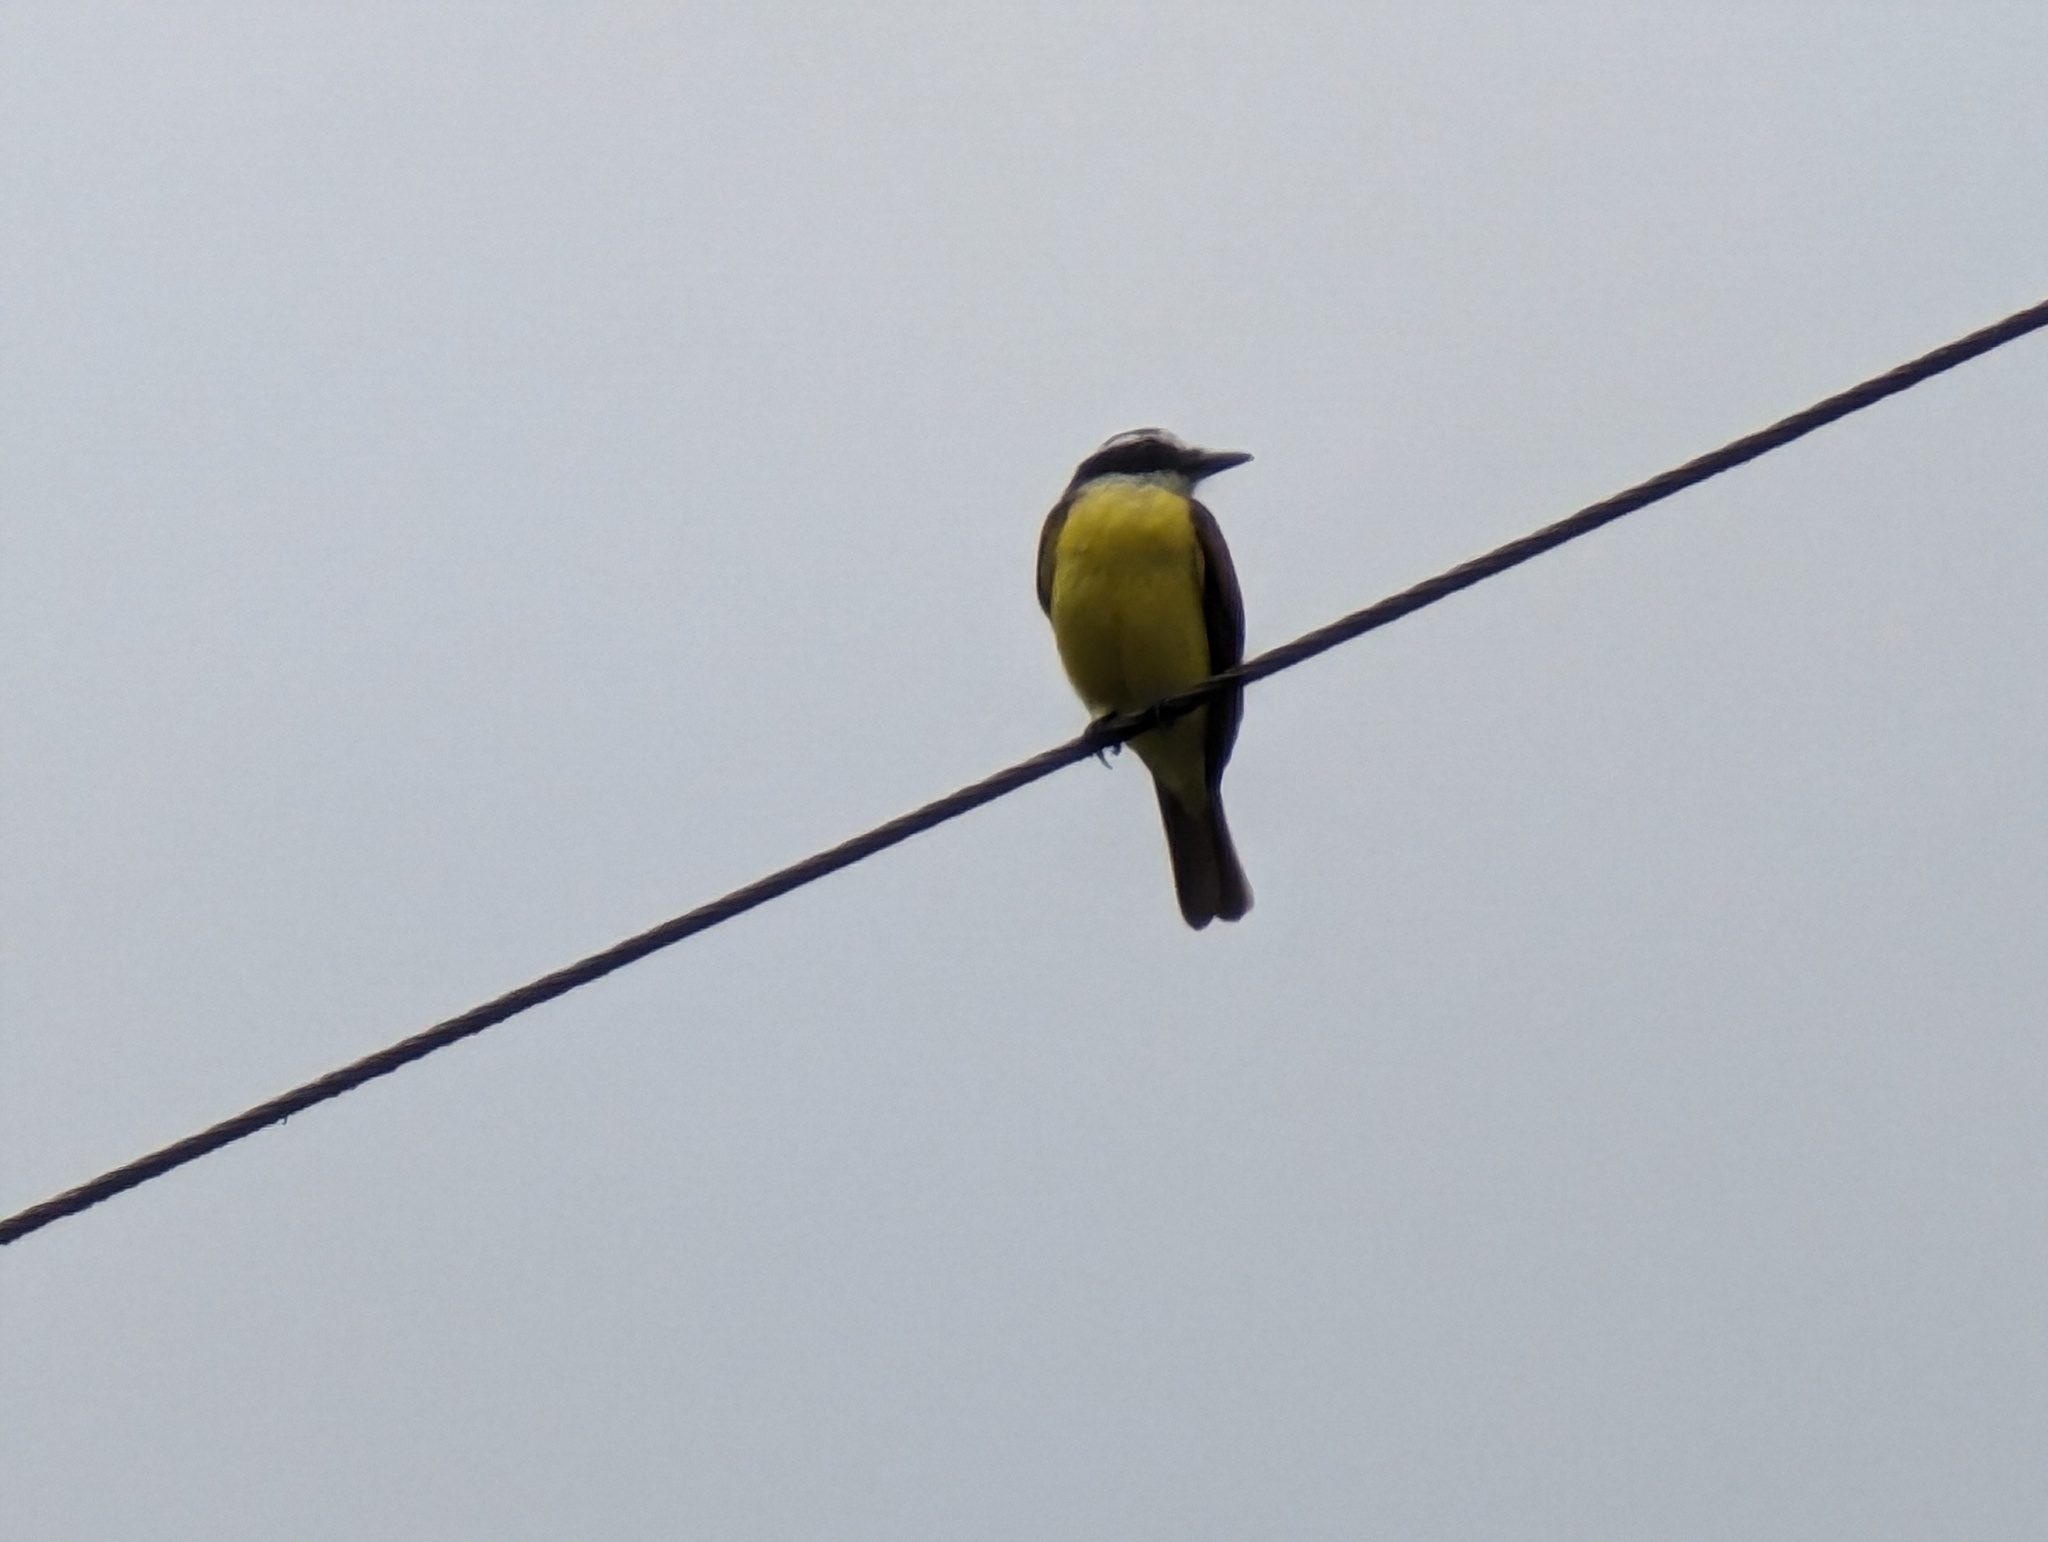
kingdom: Animalia
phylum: Chordata
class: Aves
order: Passeriformes
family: Tyrannidae
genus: Pitangus
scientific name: Pitangus sulphuratus
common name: Great kiskadee
